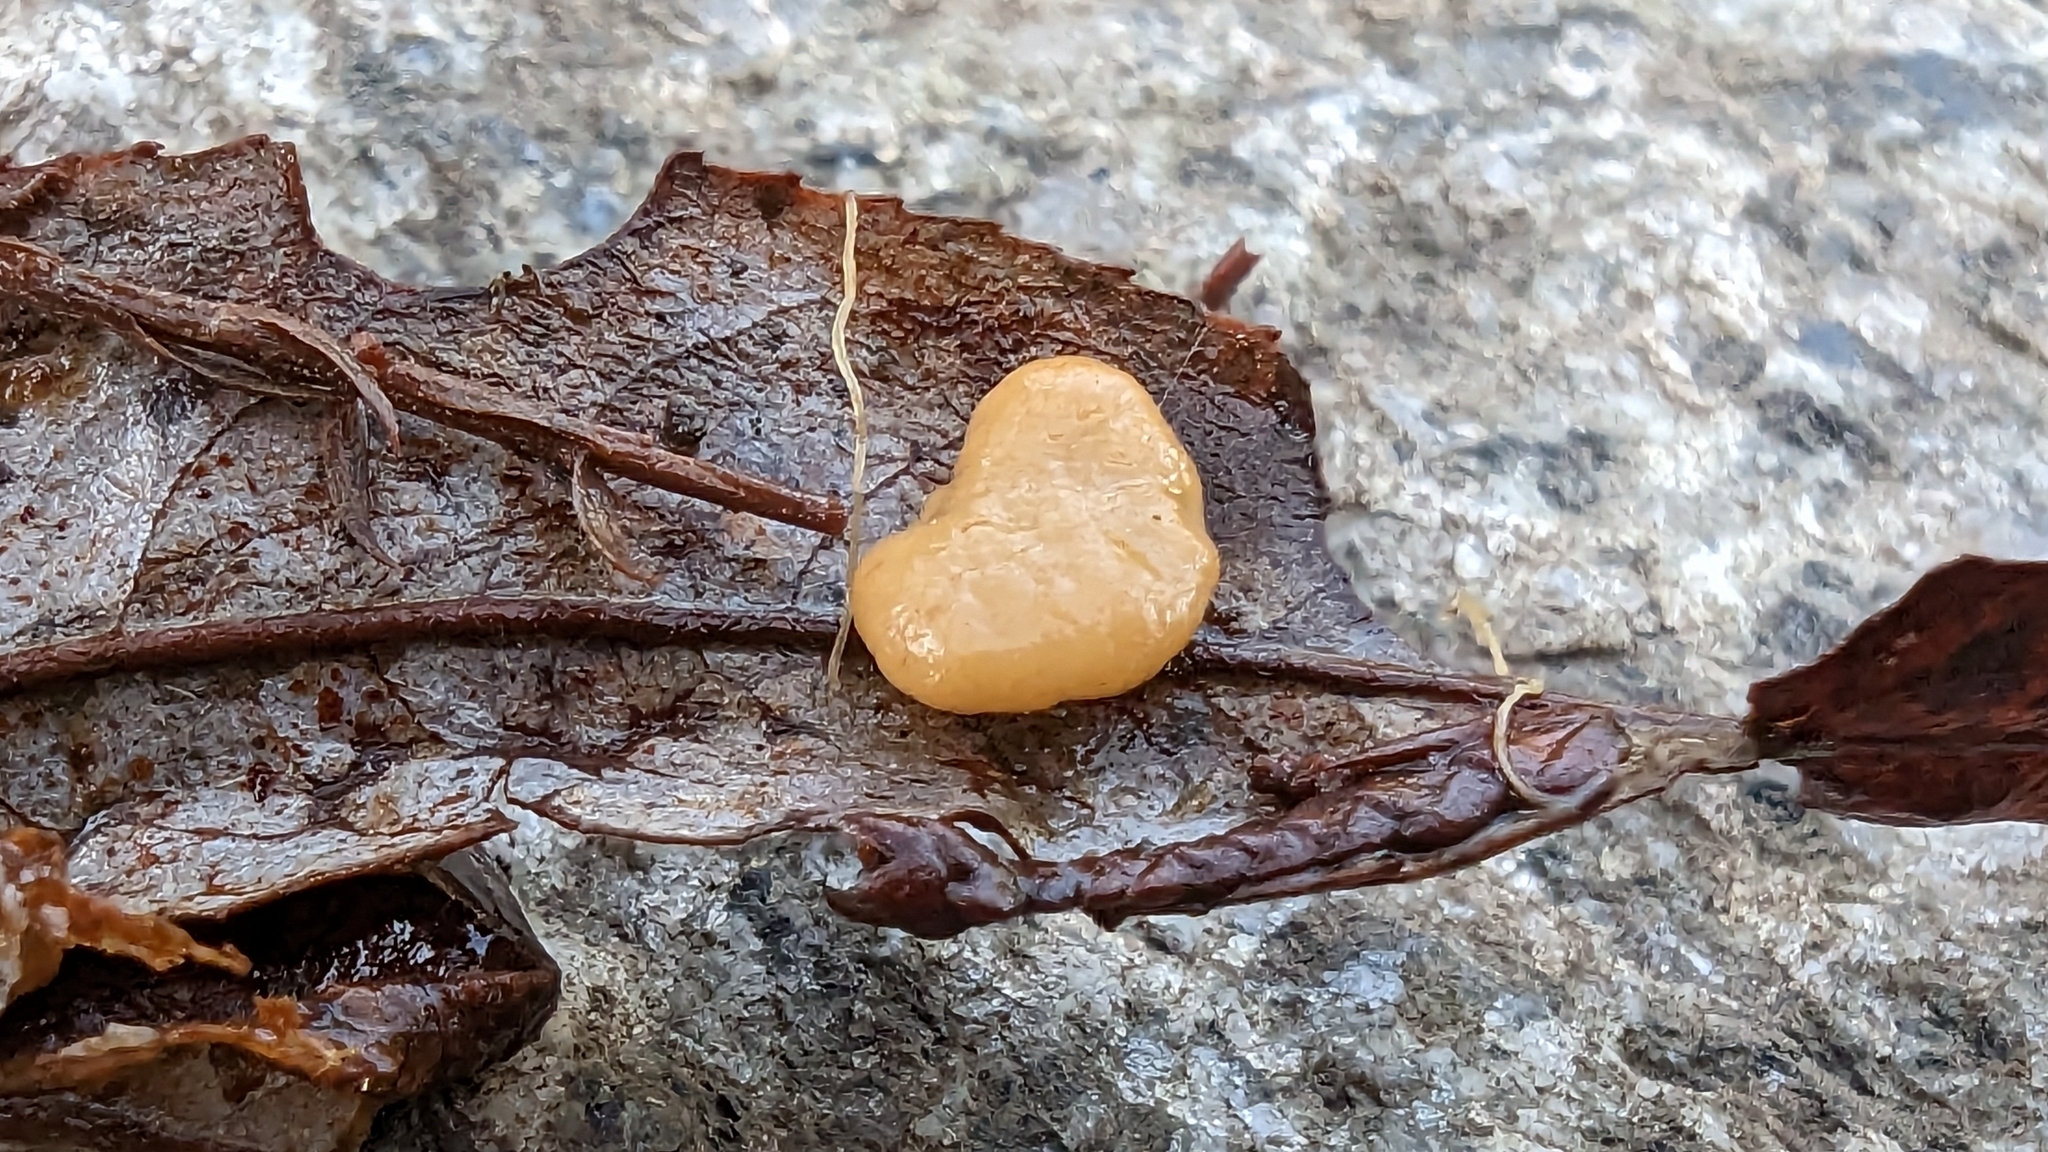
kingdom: Fungi
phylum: Basidiomycota
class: Agaricomycetes
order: Agaricales
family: Typhulaceae
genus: Macrotyphula
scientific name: Macrotyphula phacorrhiza
